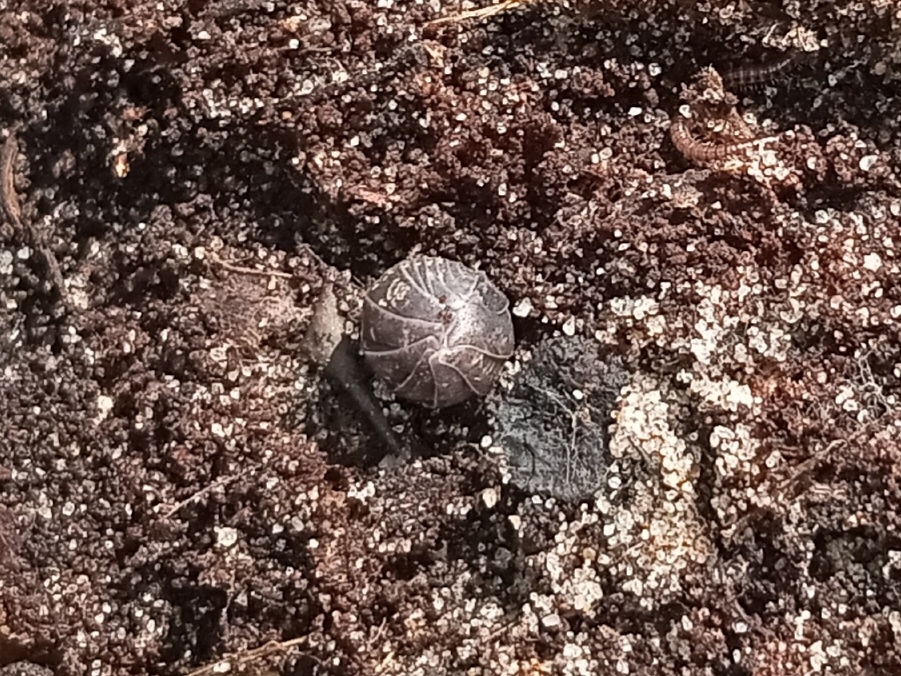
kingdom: Animalia
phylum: Arthropoda
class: Malacostraca
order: Isopoda
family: Armadillidiidae
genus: Armadillidium
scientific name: Armadillidium vulgare
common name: Common pill woodlouse
